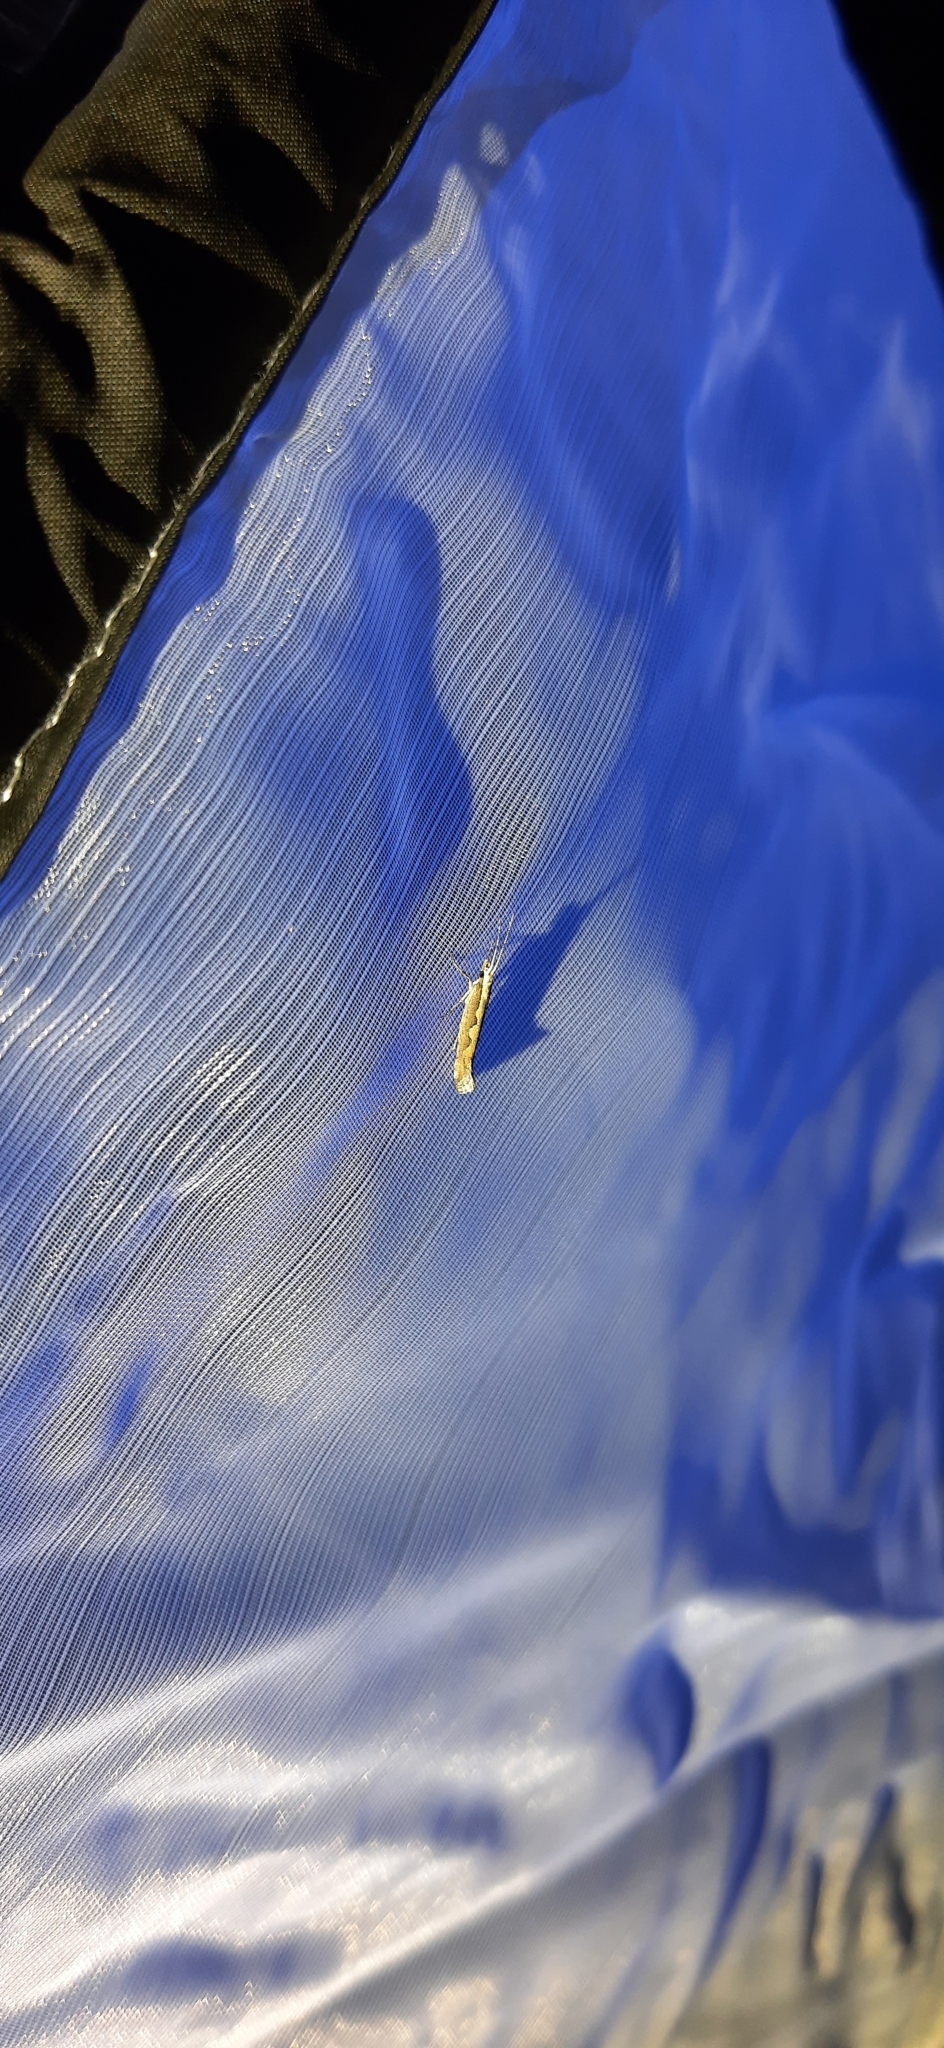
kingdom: Animalia
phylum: Arthropoda
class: Insecta
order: Lepidoptera
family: Plutellidae
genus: Plutella
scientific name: Plutella xylostella
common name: Diamond-back moth
